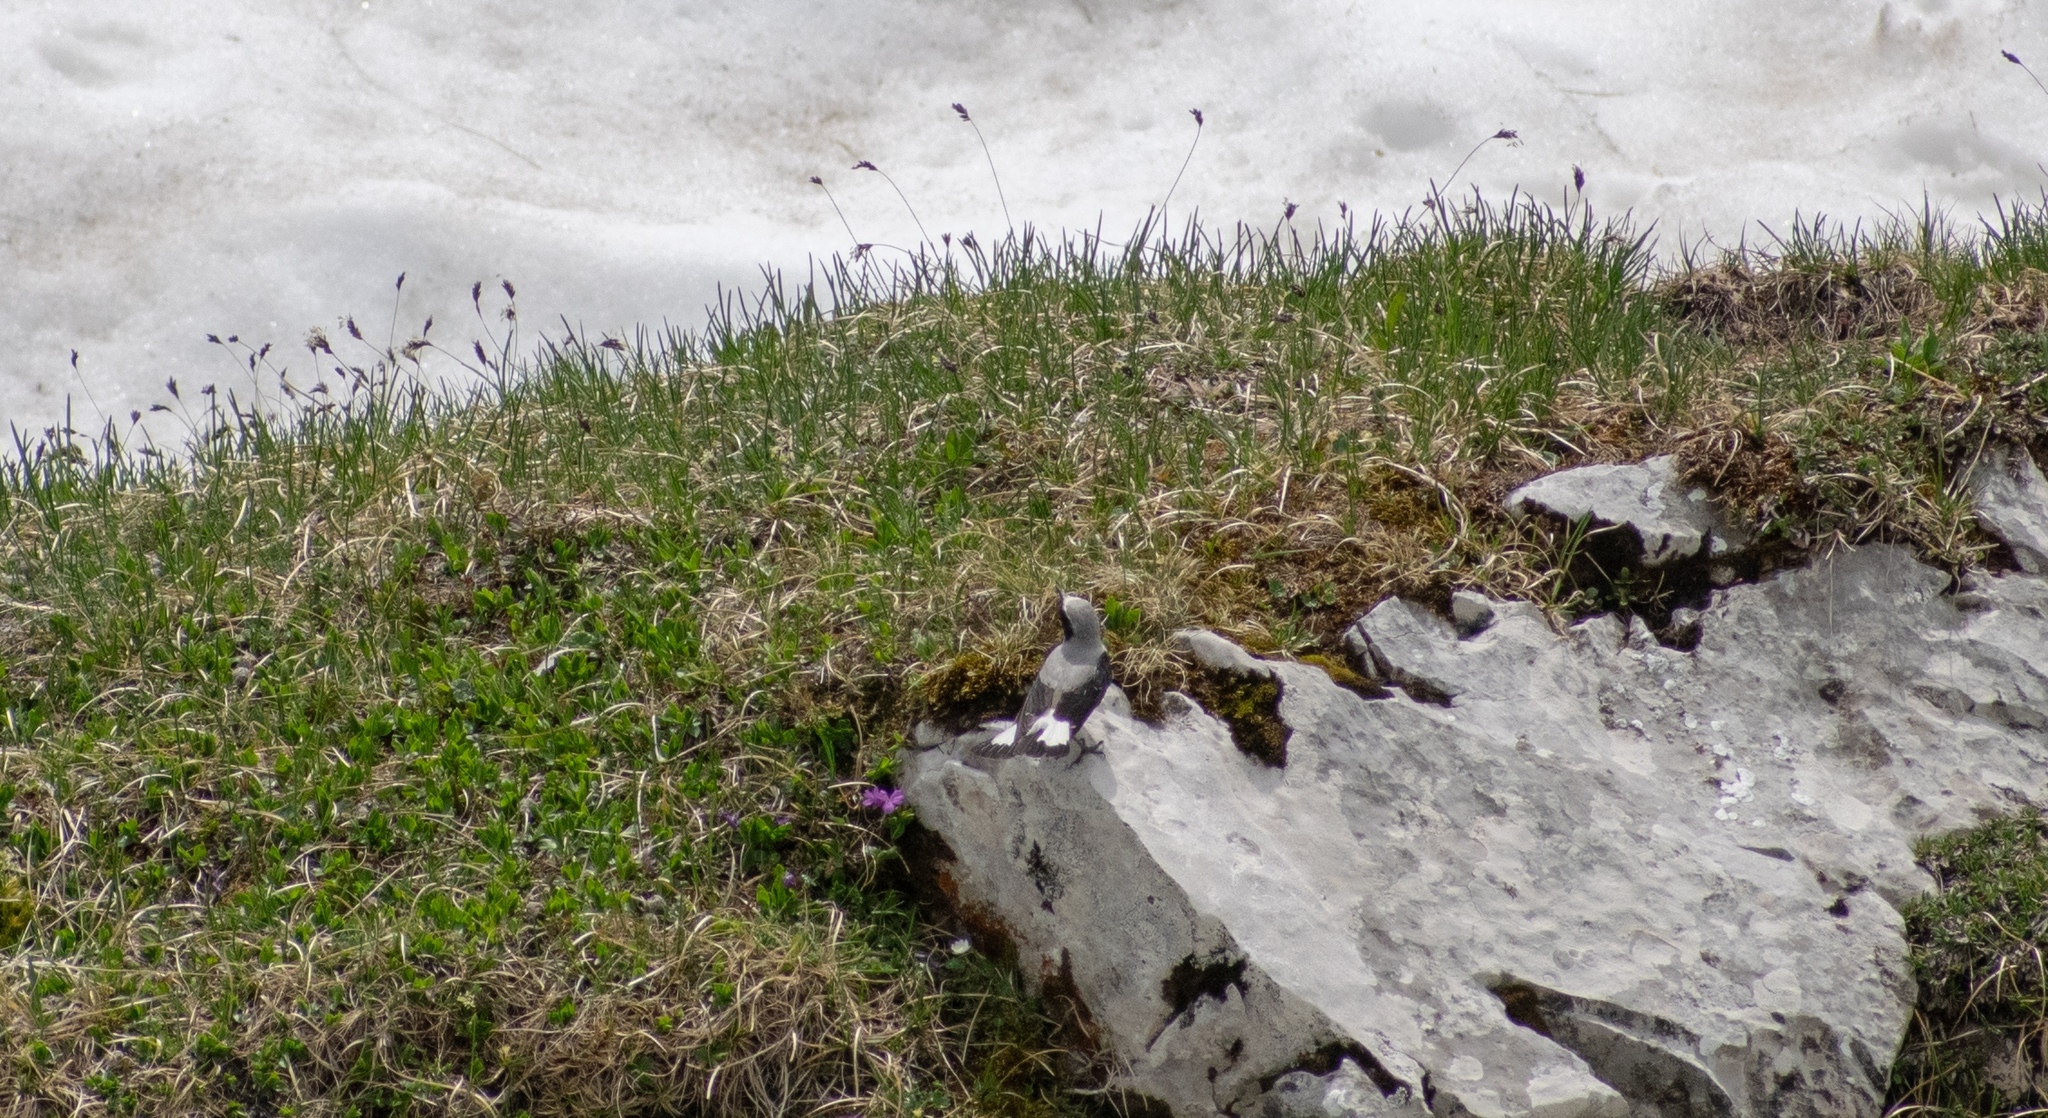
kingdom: Animalia
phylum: Chordata
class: Aves
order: Passeriformes
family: Muscicapidae
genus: Oenanthe
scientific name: Oenanthe oenanthe
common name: Northern wheatear
